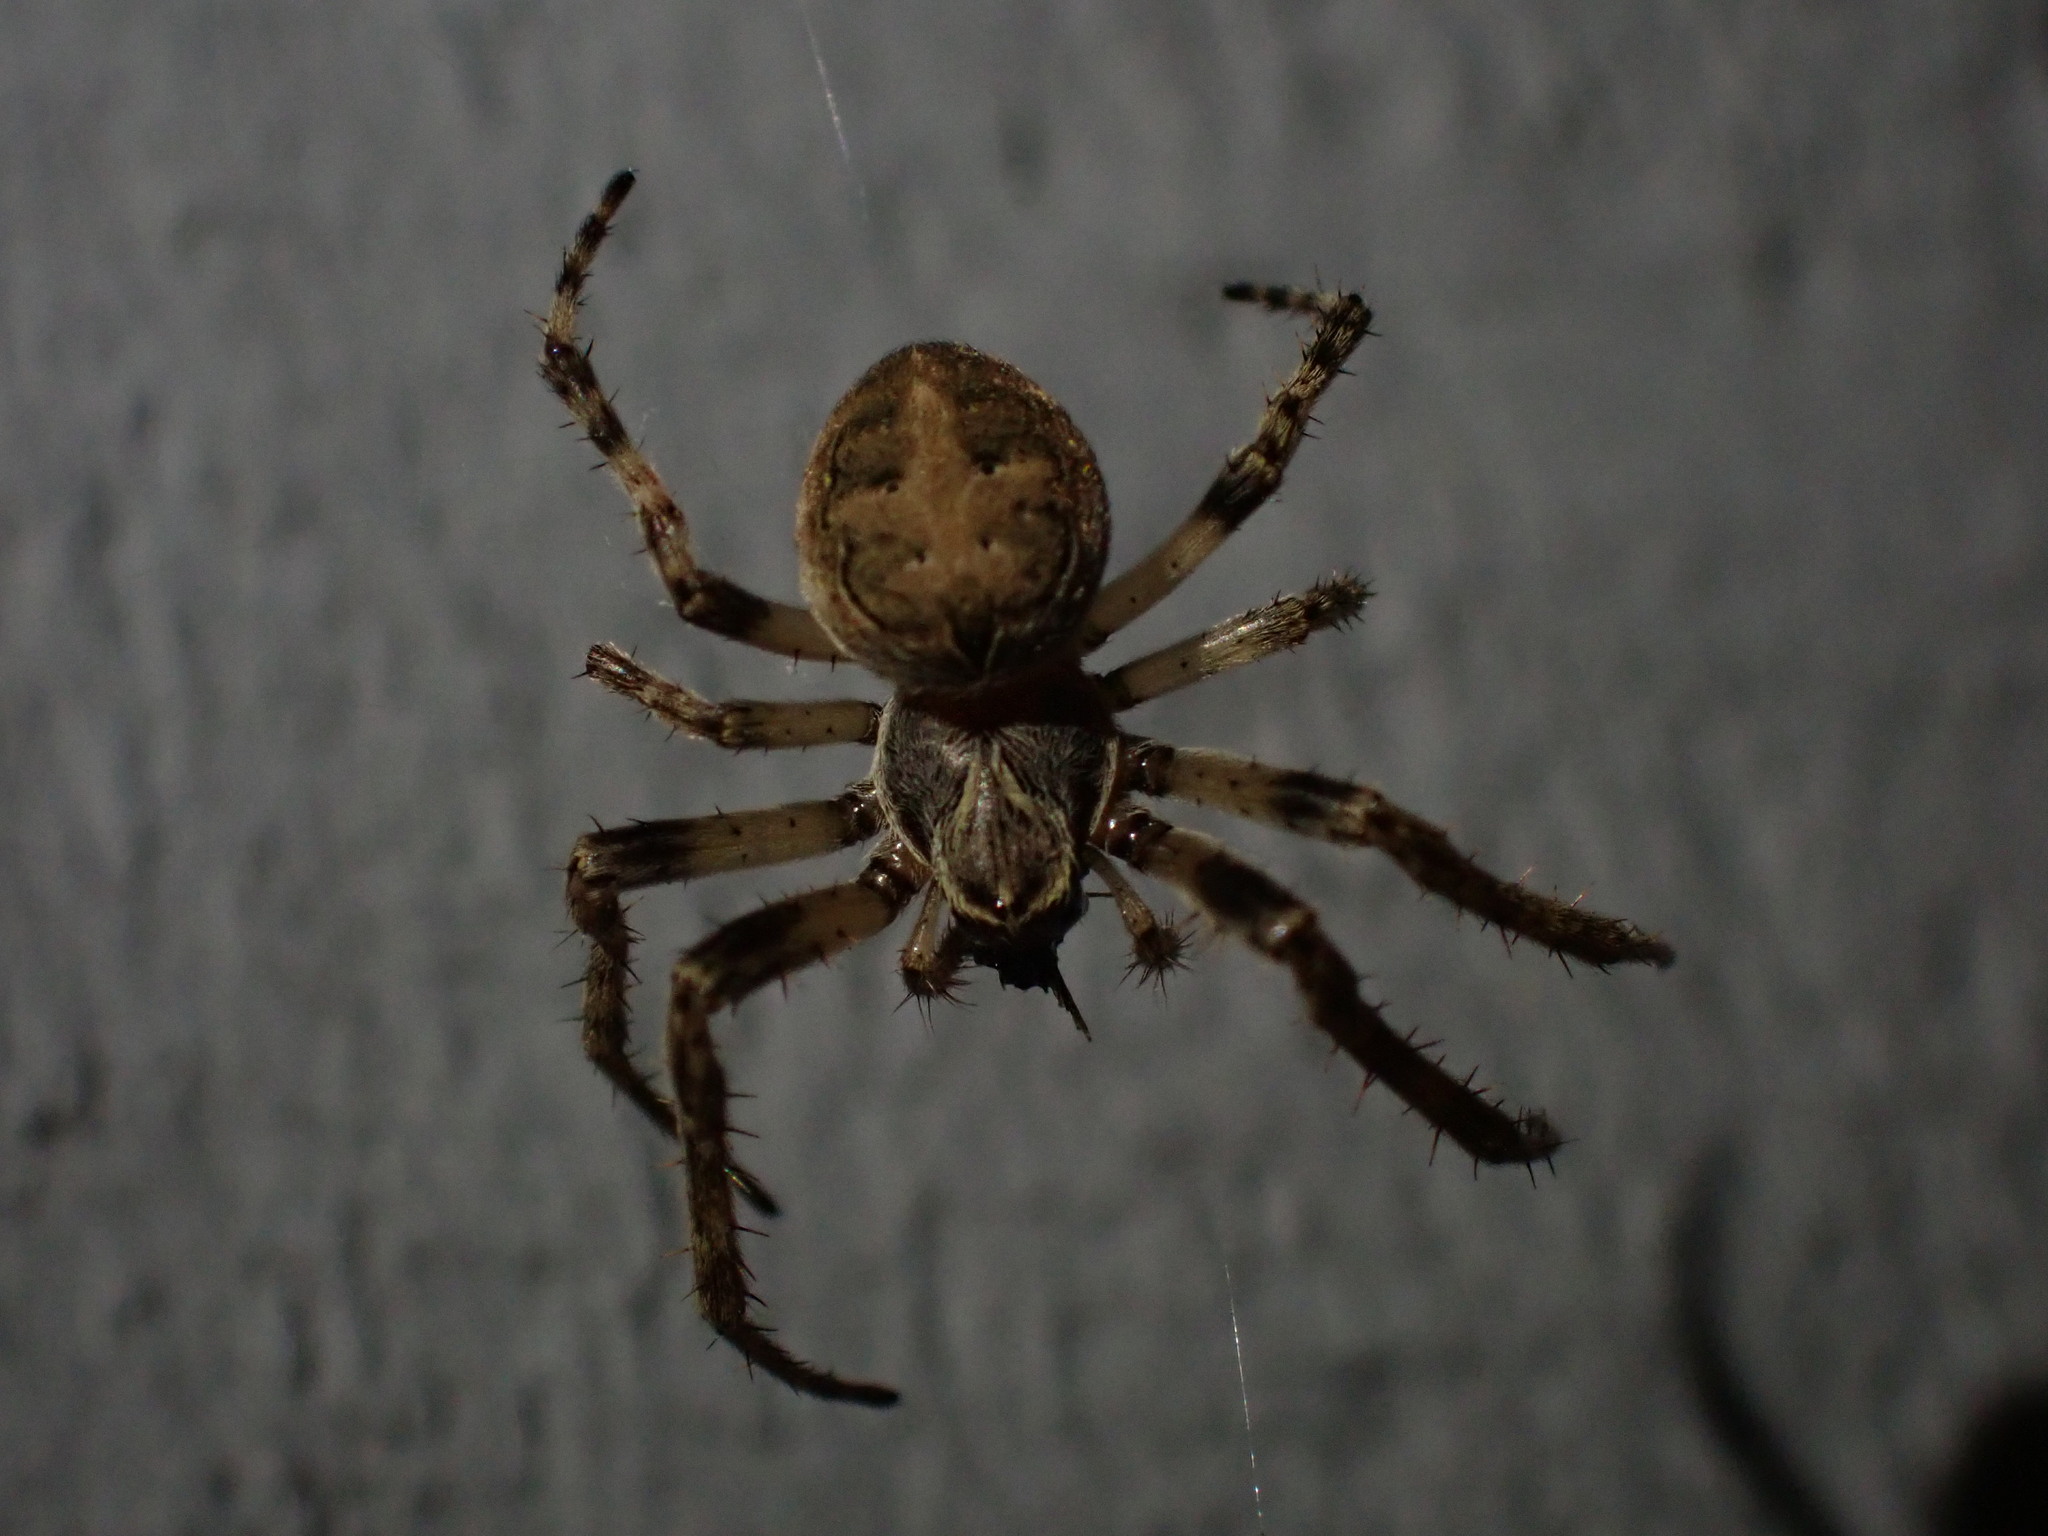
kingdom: Animalia
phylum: Arthropoda
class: Arachnida
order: Araneae
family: Araneidae
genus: Larinioides
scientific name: Larinioides sclopetarius
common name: Bridge orbweaver
